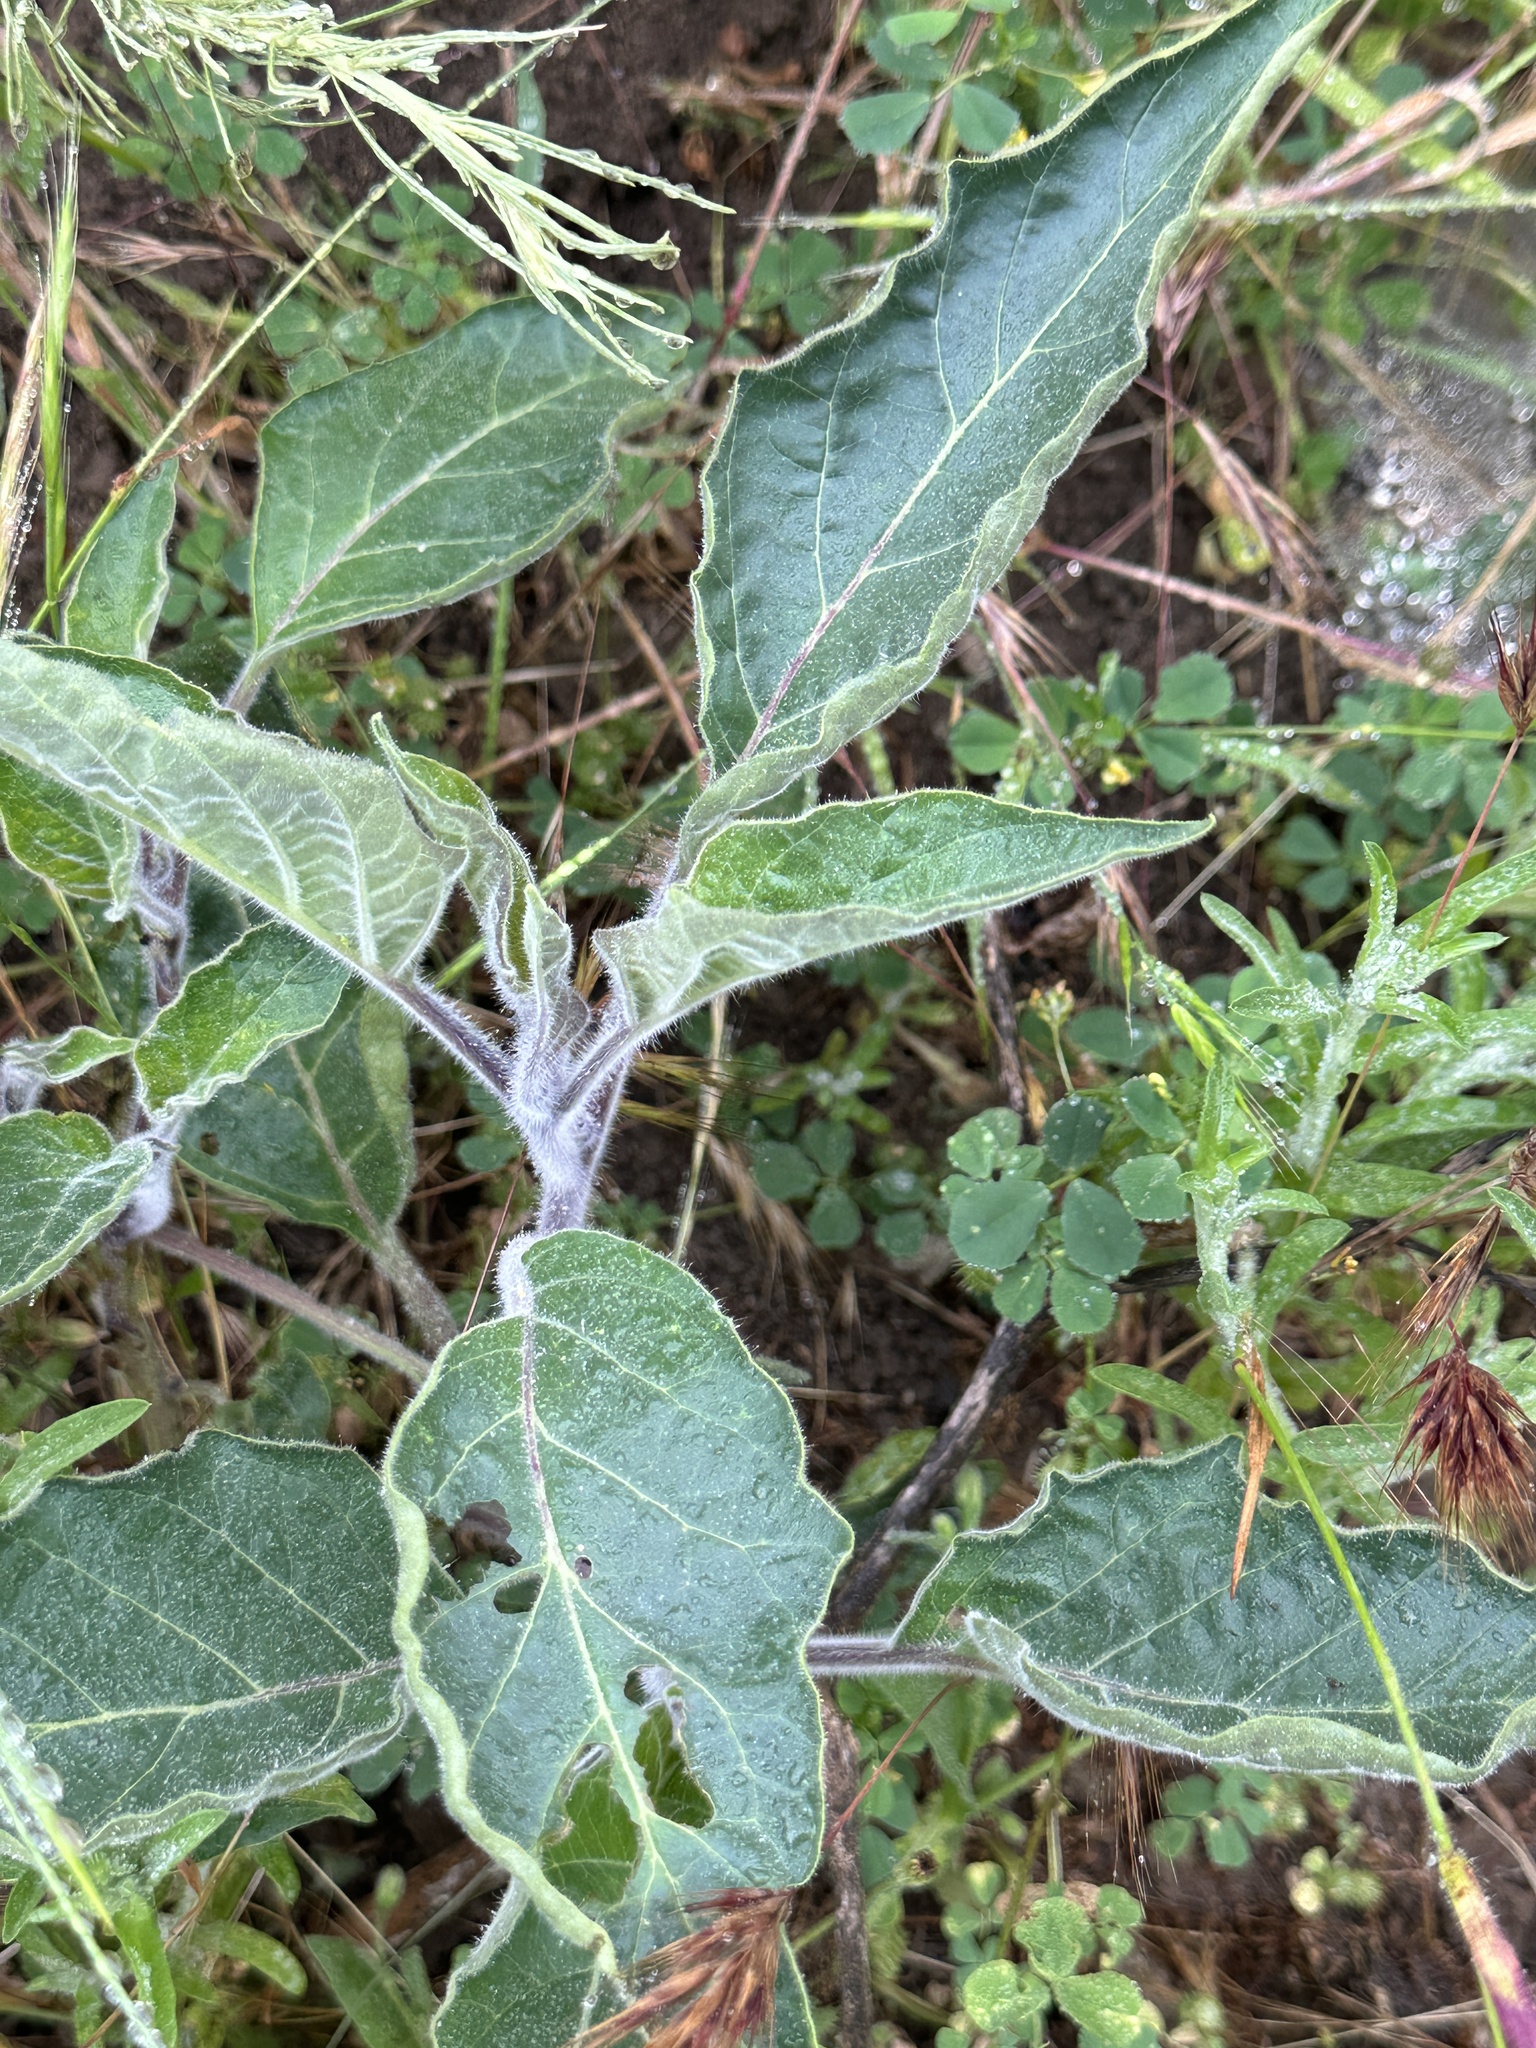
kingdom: Plantae
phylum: Tracheophyta
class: Magnoliopsida
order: Solanales
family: Solanaceae
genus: Datura
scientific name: Datura wrightii
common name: Sacred thorn-apple
